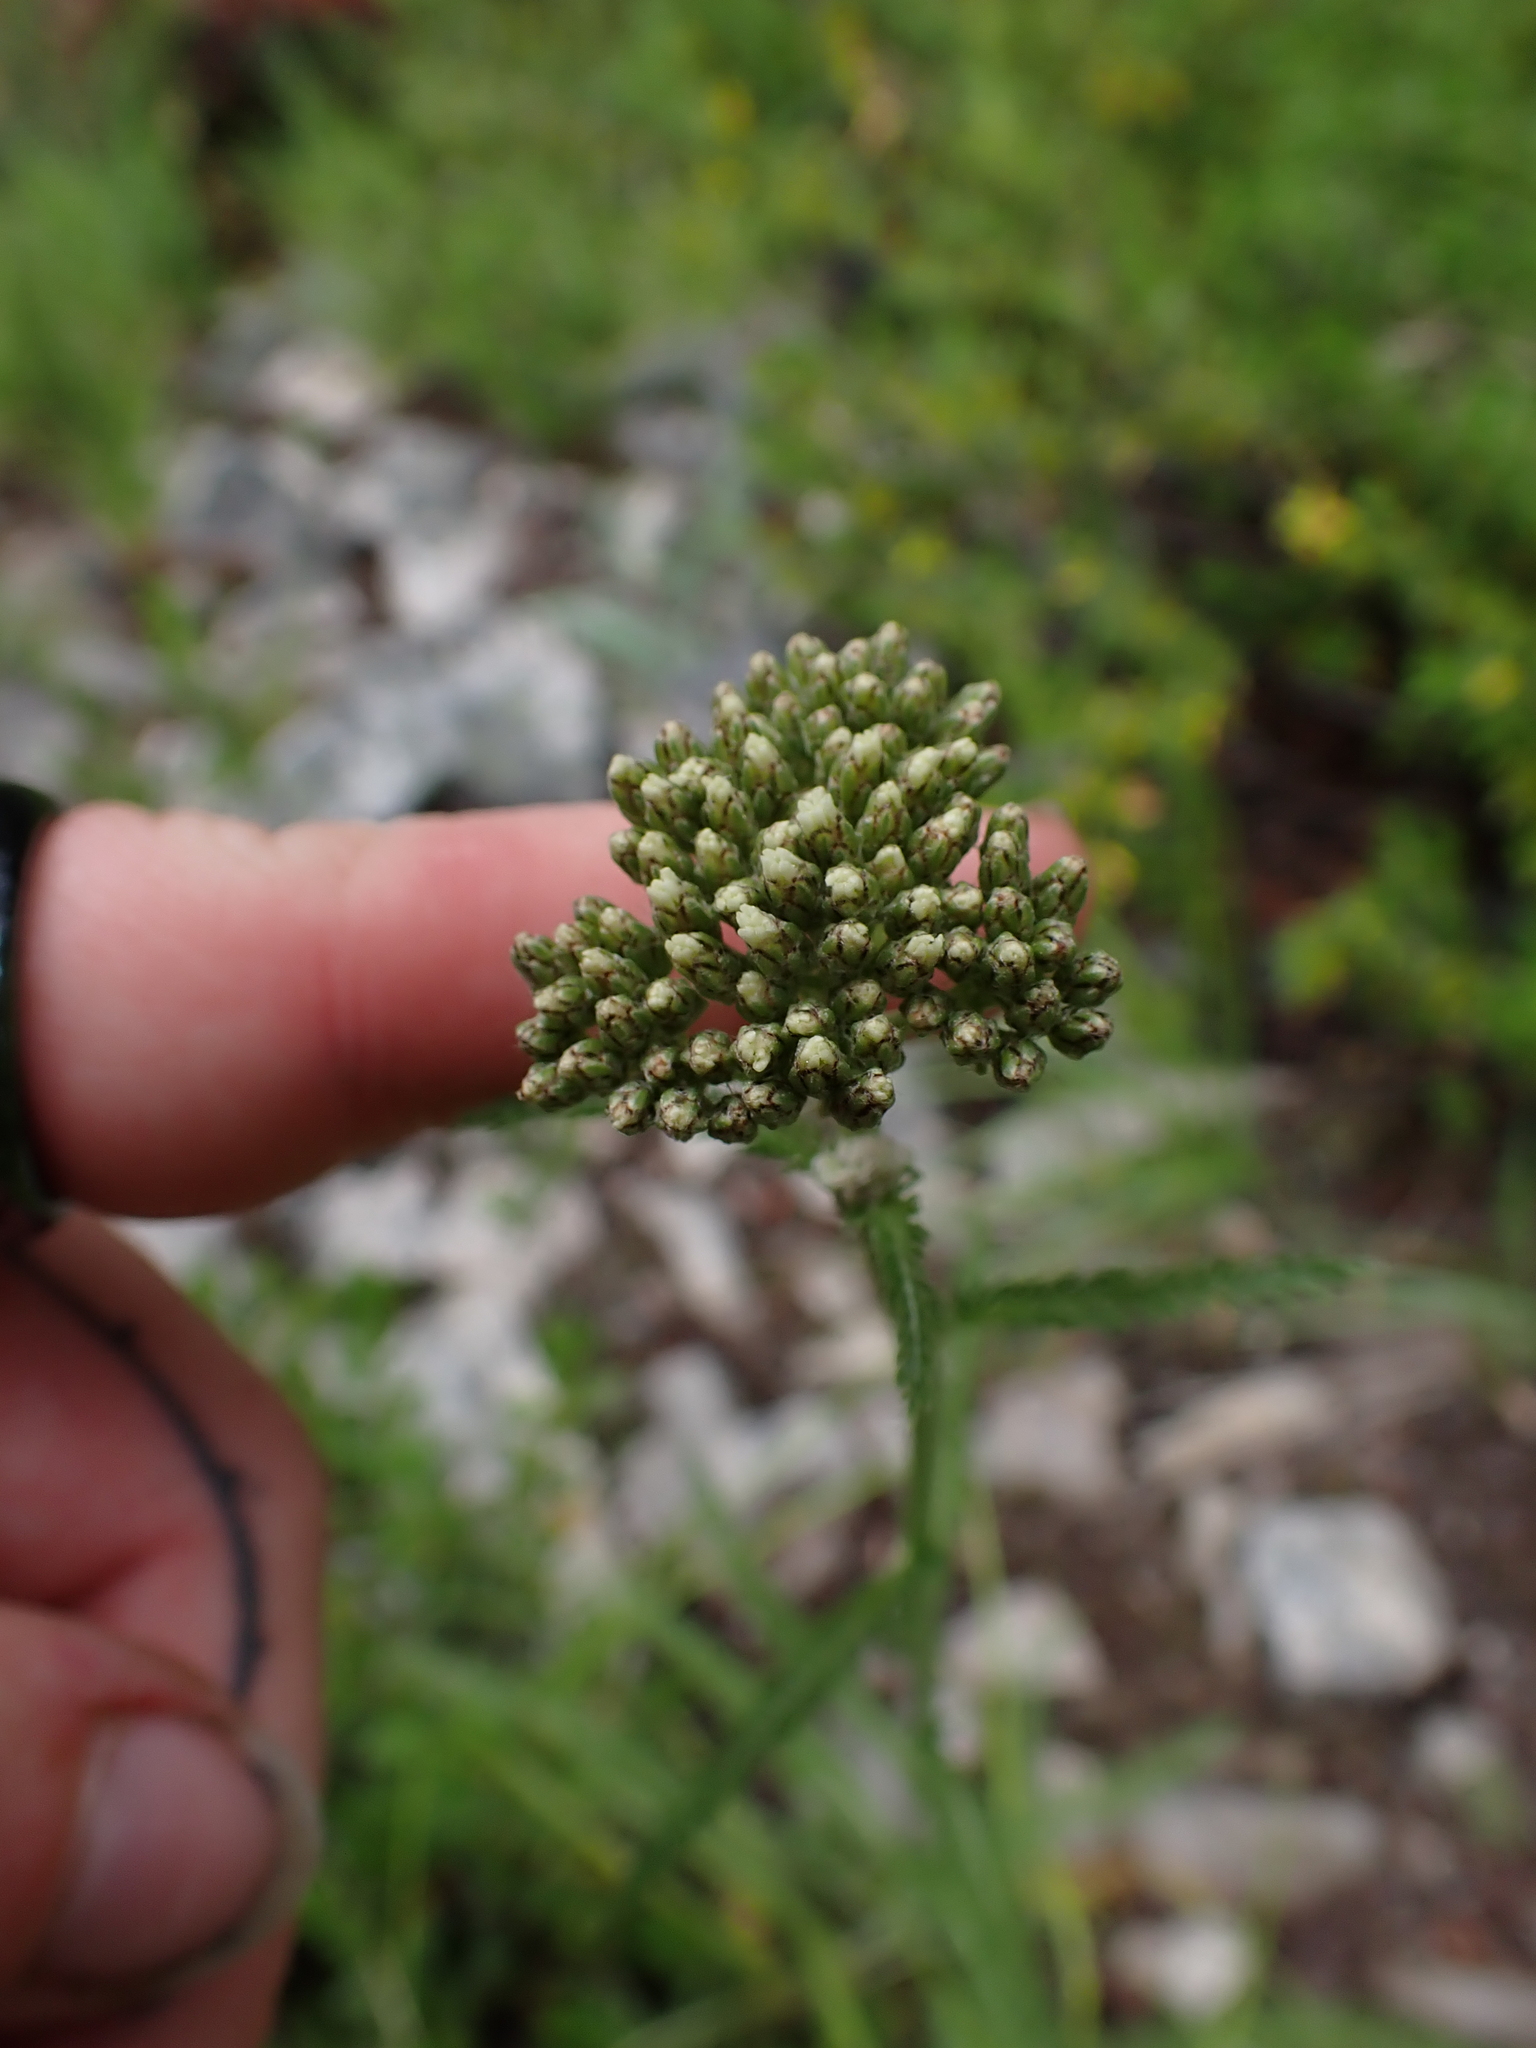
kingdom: Plantae
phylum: Tracheophyta
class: Magnoliopsida
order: Asterales
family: Asteraceae
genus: Achillea
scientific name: Achillea millefolium
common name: Yarrow
